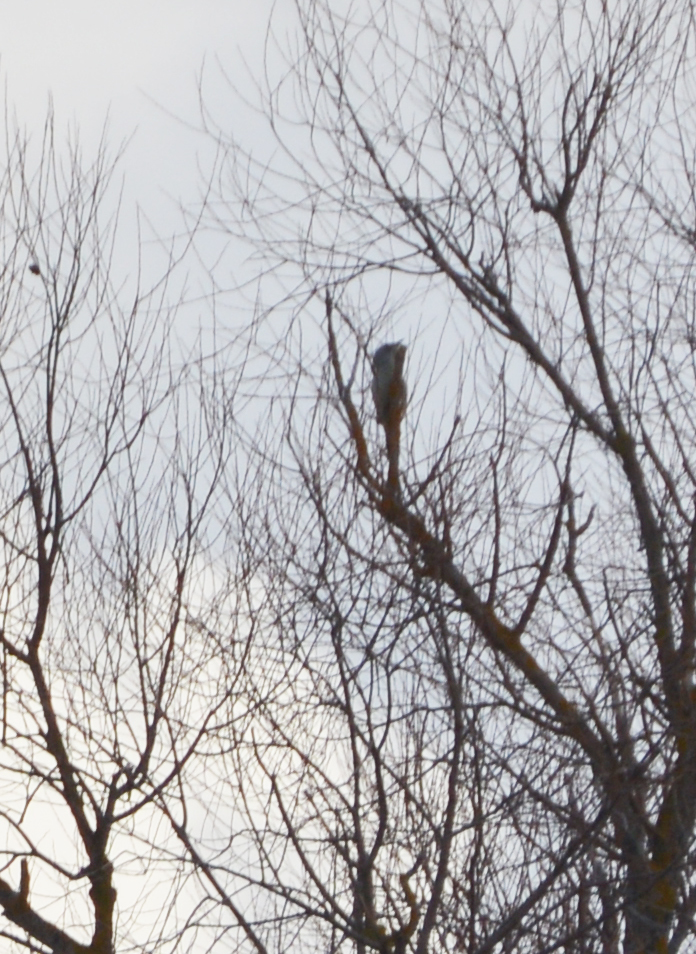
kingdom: Animalia
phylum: Chordata
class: Aves
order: Piciformes
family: Picidae
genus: Picus
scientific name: Picus canus
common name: Grey-headed woodpecker
